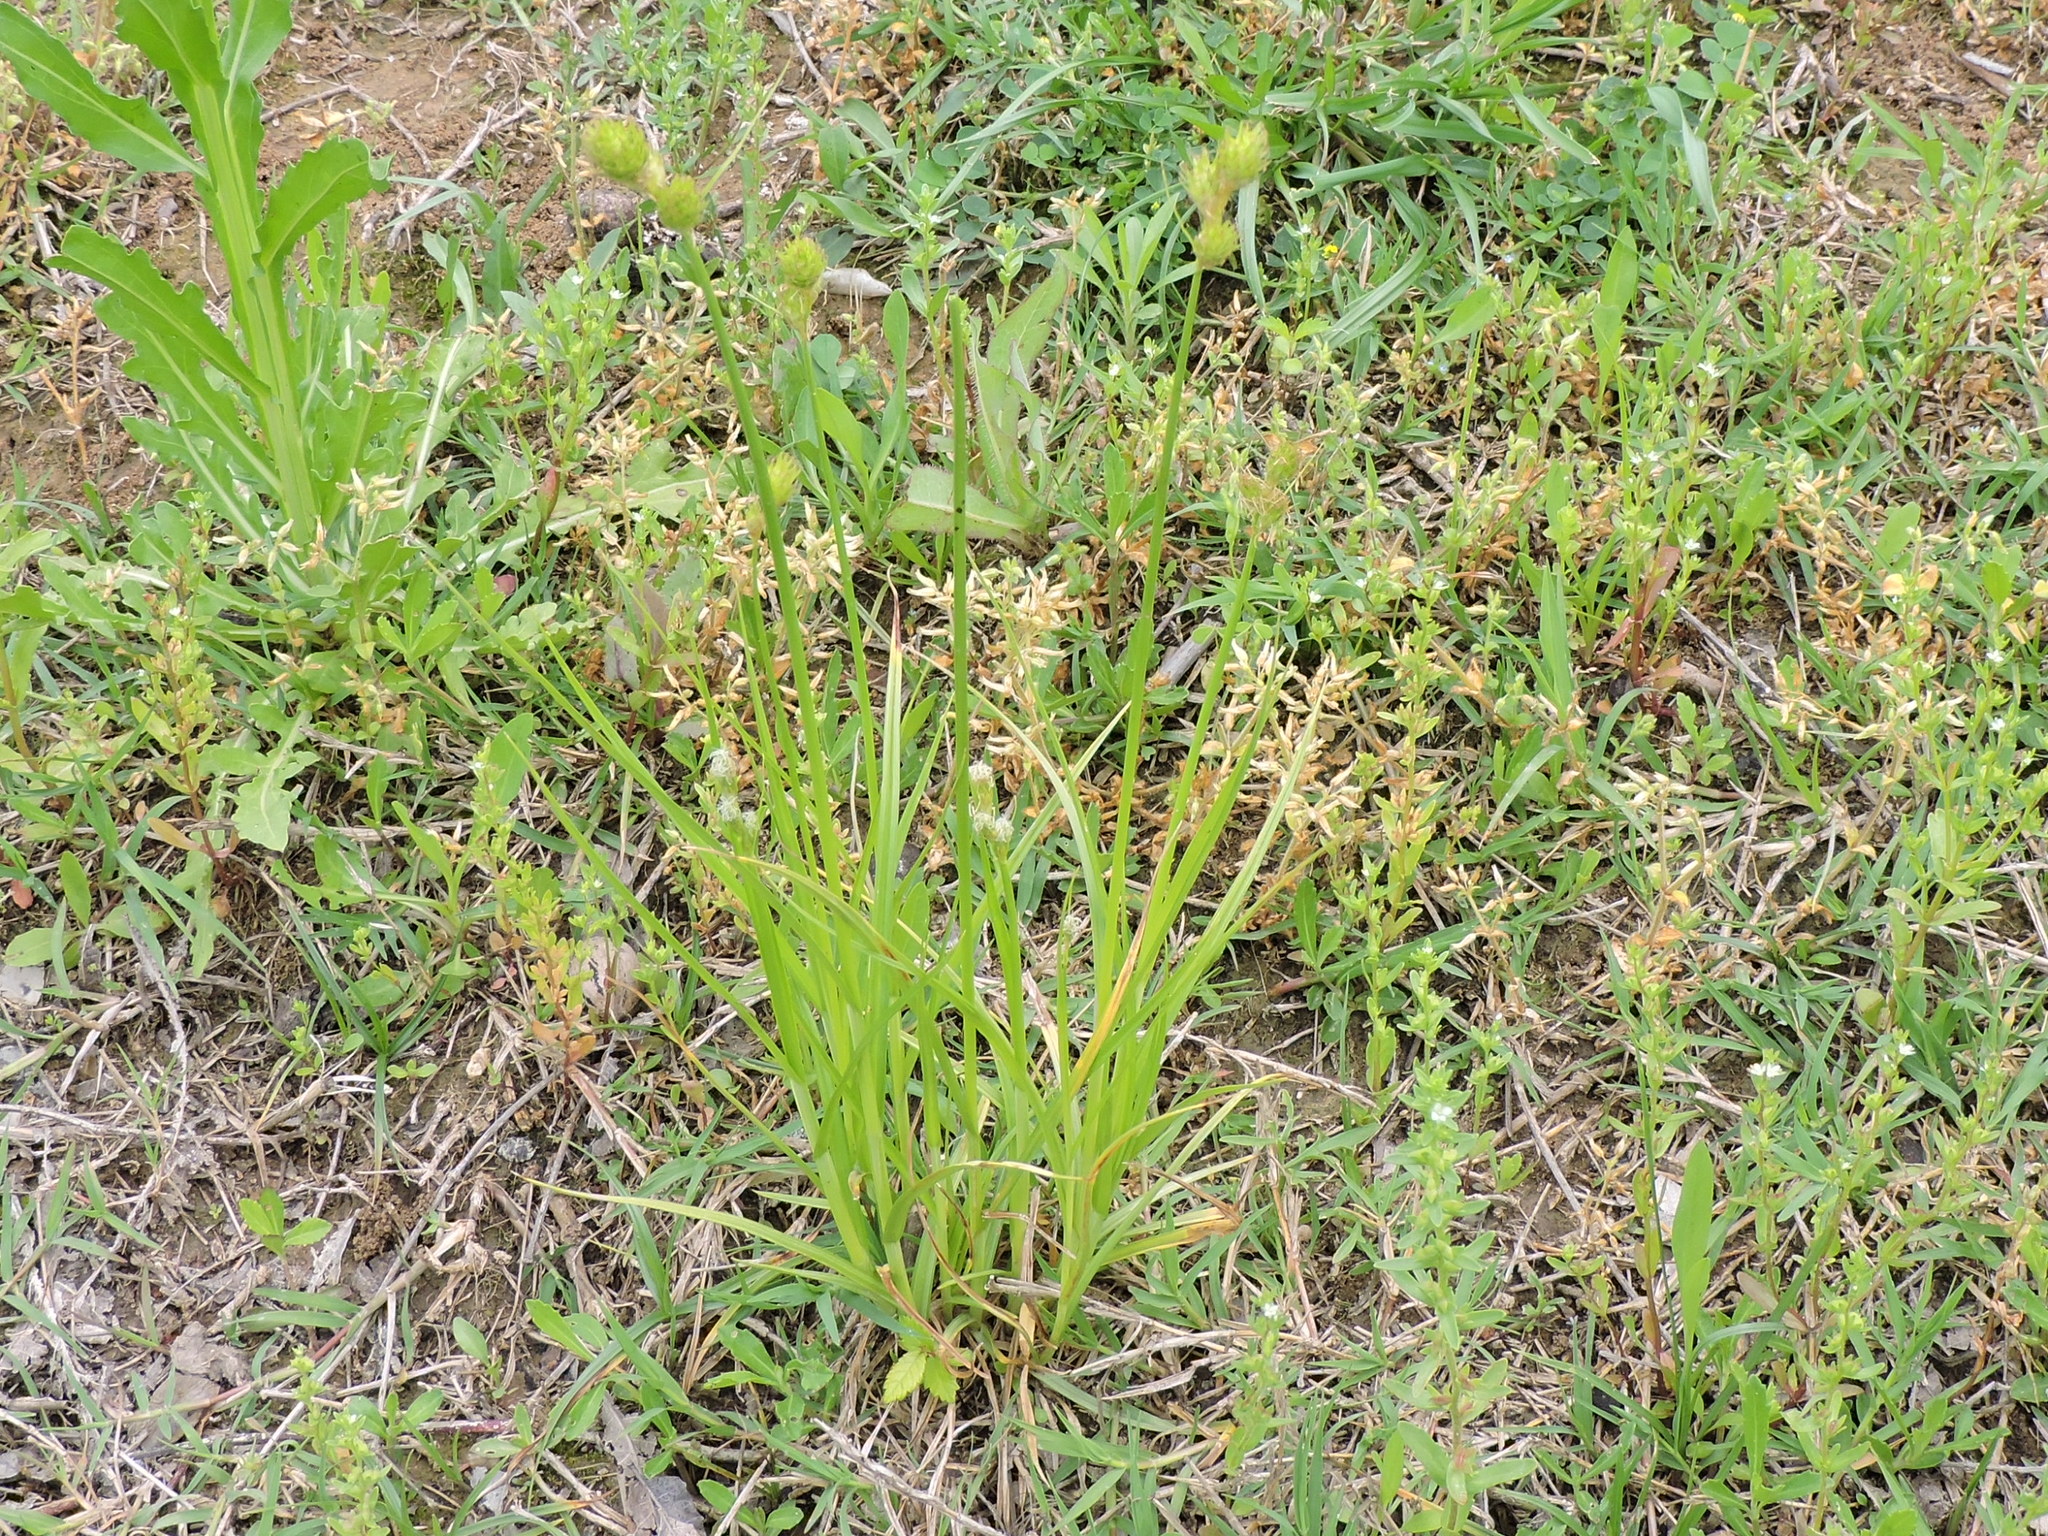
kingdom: Plantae
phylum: Tracheophyta
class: Liliopsida
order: Poales
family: Cyperaceae
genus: Carex
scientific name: Carex tetrastachya
